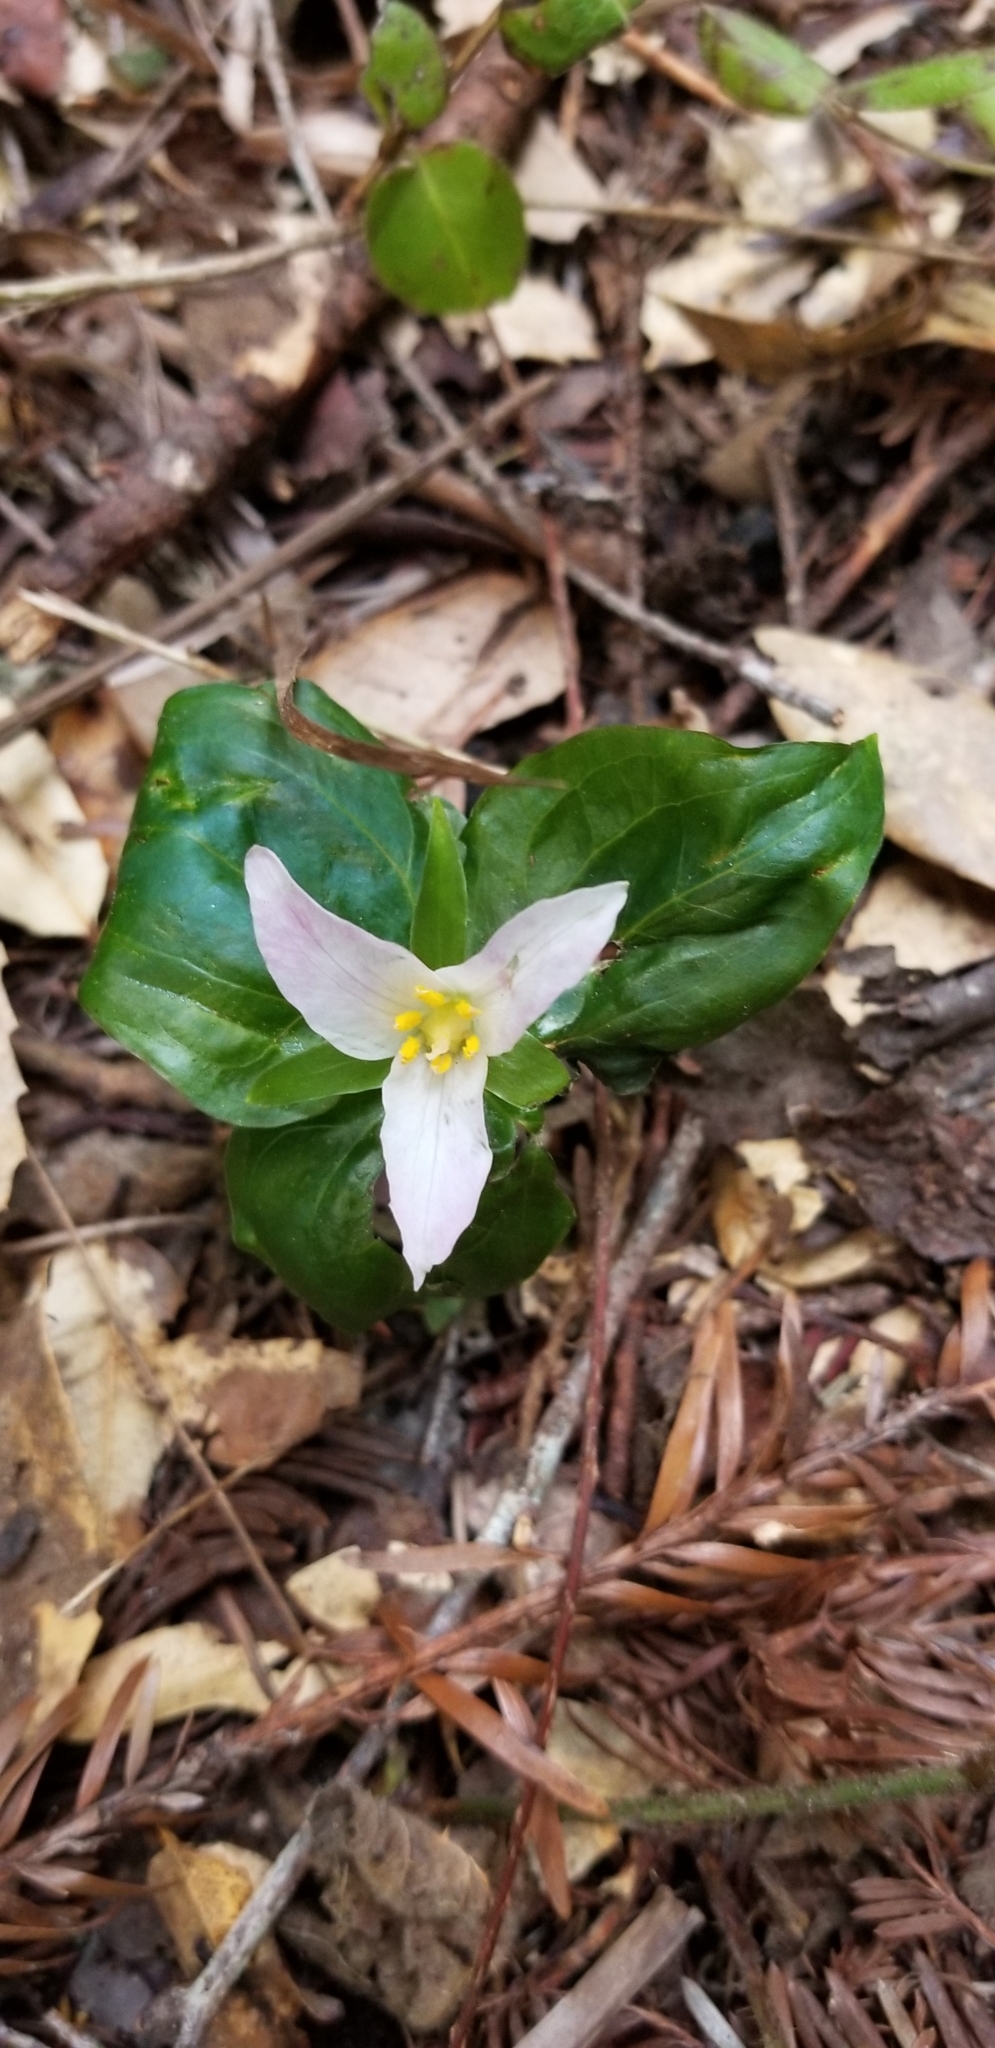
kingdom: Plantae
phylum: Tracheophyta
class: Liliopsida
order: Liliales
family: Melanthiaceae
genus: Trillium
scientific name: Trillium ovatum
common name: Pacific trillium
